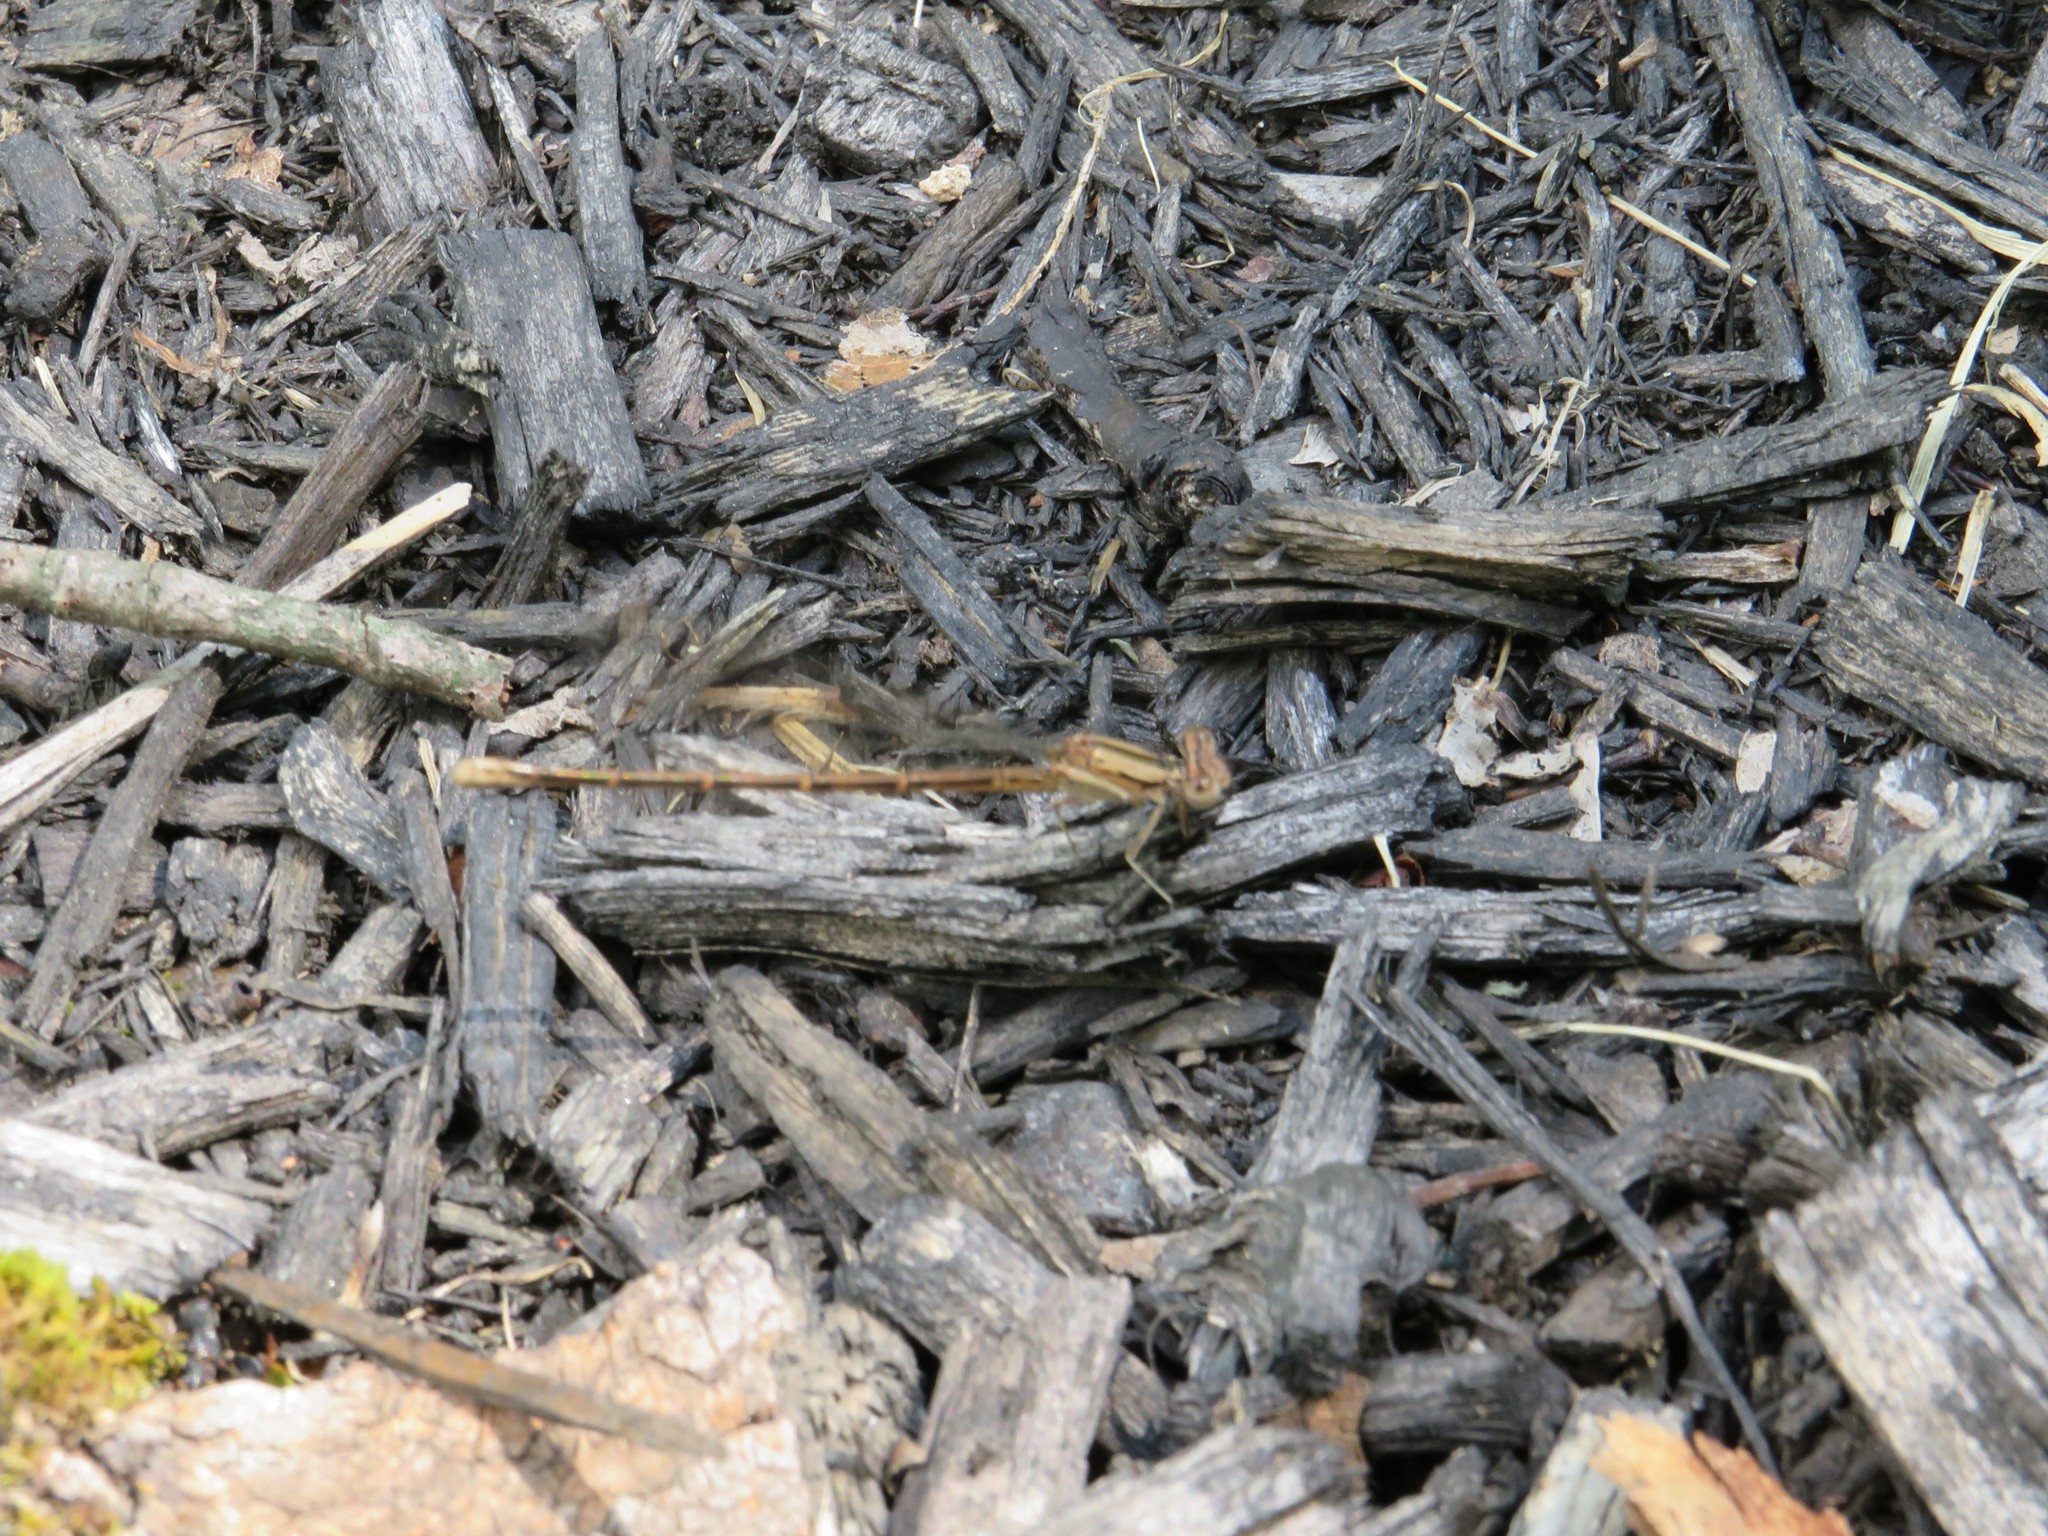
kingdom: Animalia
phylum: Arthropoda
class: Insecta
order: Odonata
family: Coenagrionidae
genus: Argia
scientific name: Argia fumipennis
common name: Variable dancer
